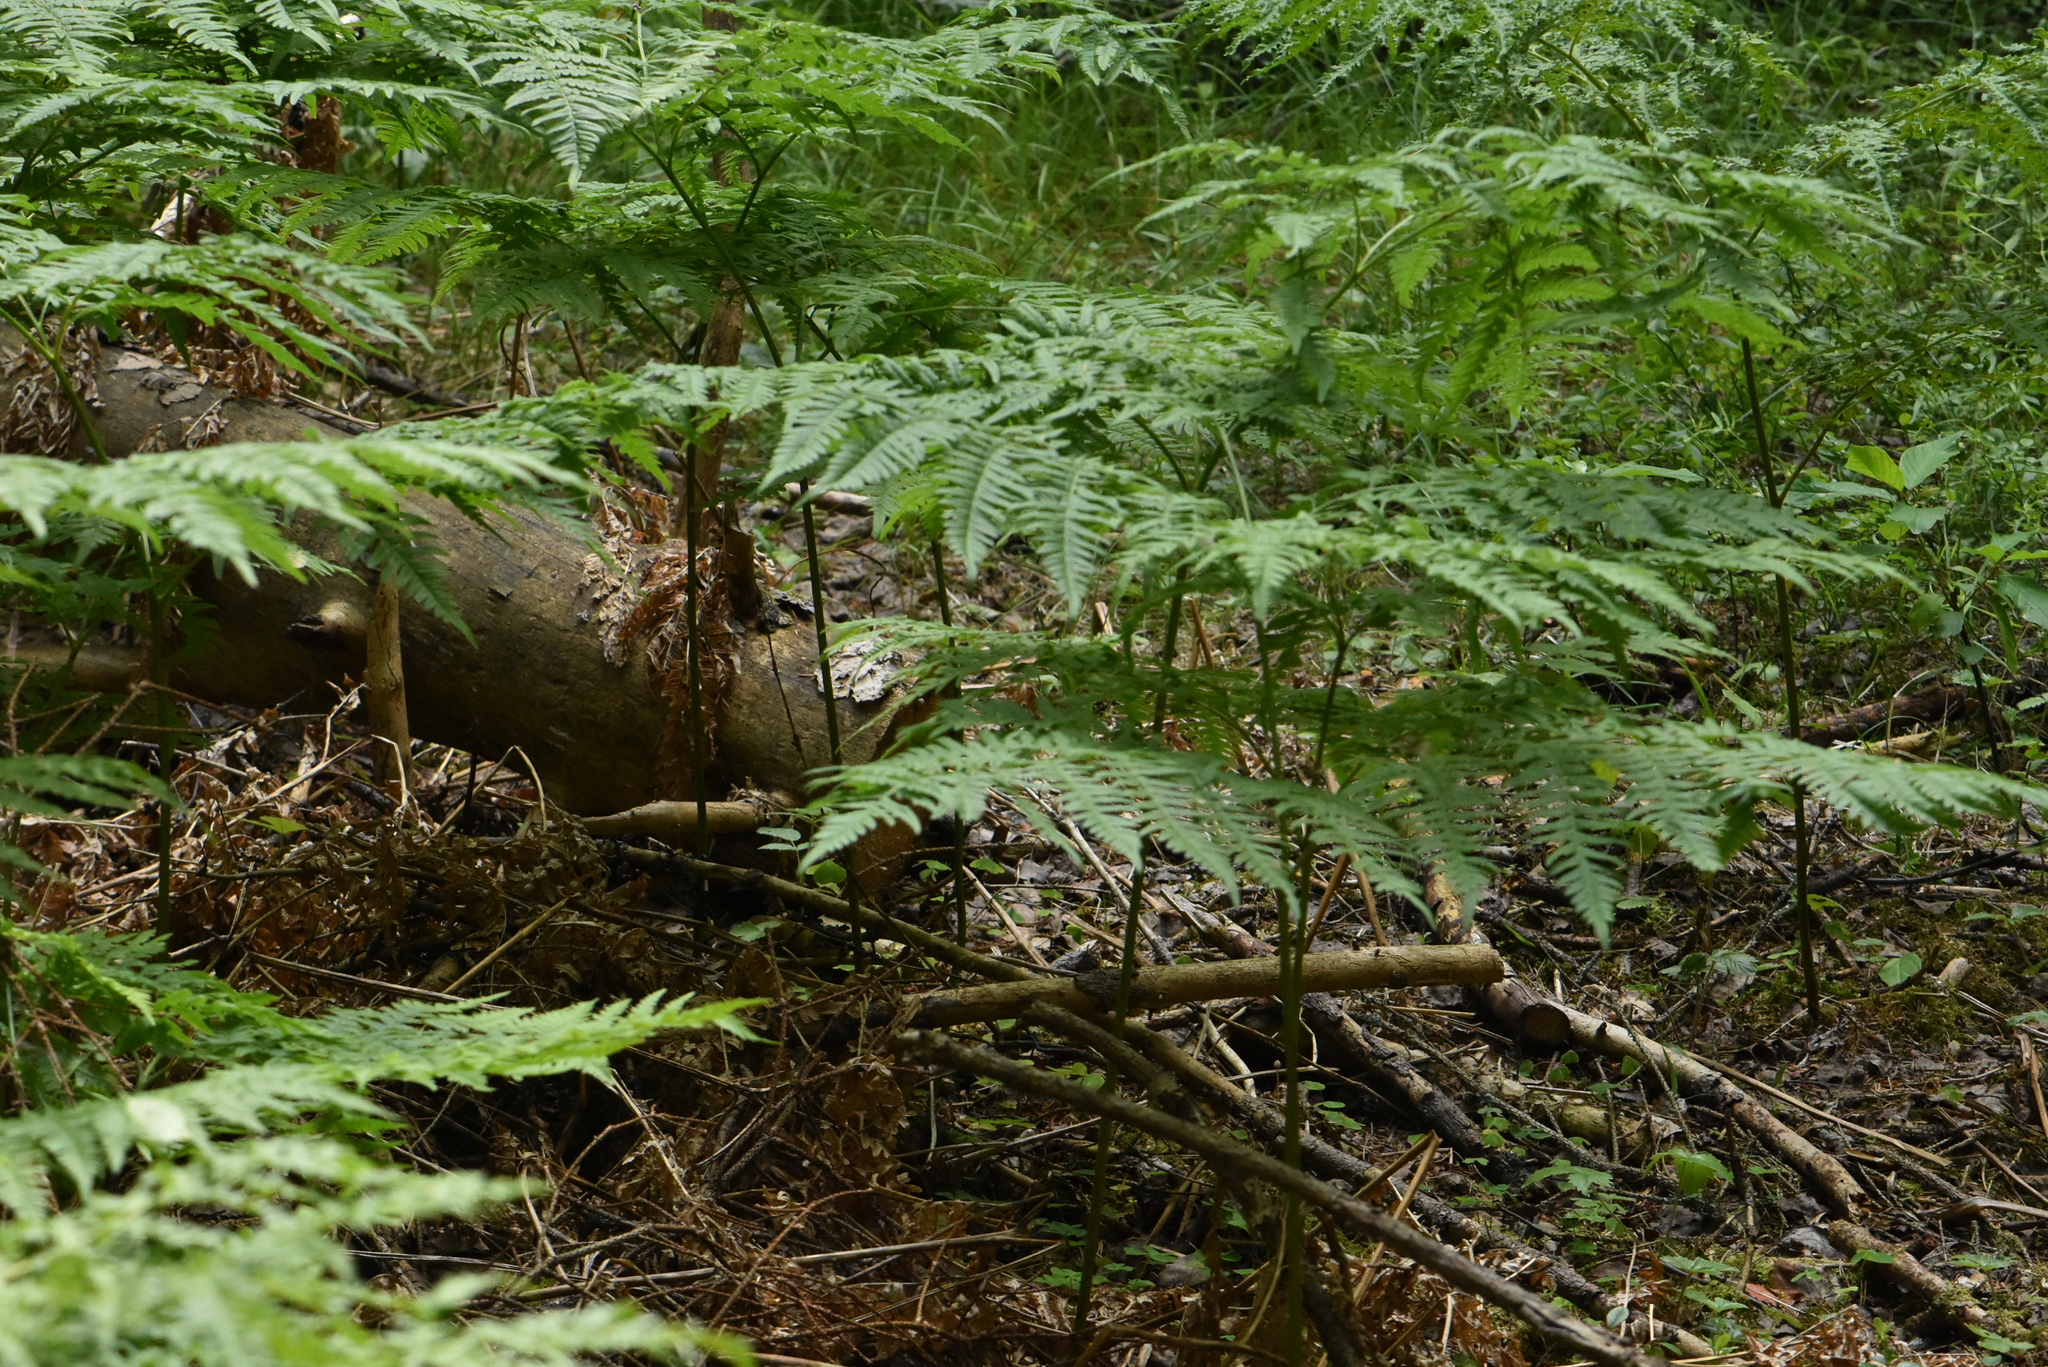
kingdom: Plantae
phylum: Tracheophyta
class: Polypodiopsida
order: Polypodiales
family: Dennstaedtiaceae
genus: Pteridium
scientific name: Pteridium aquilinum
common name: Bracken
